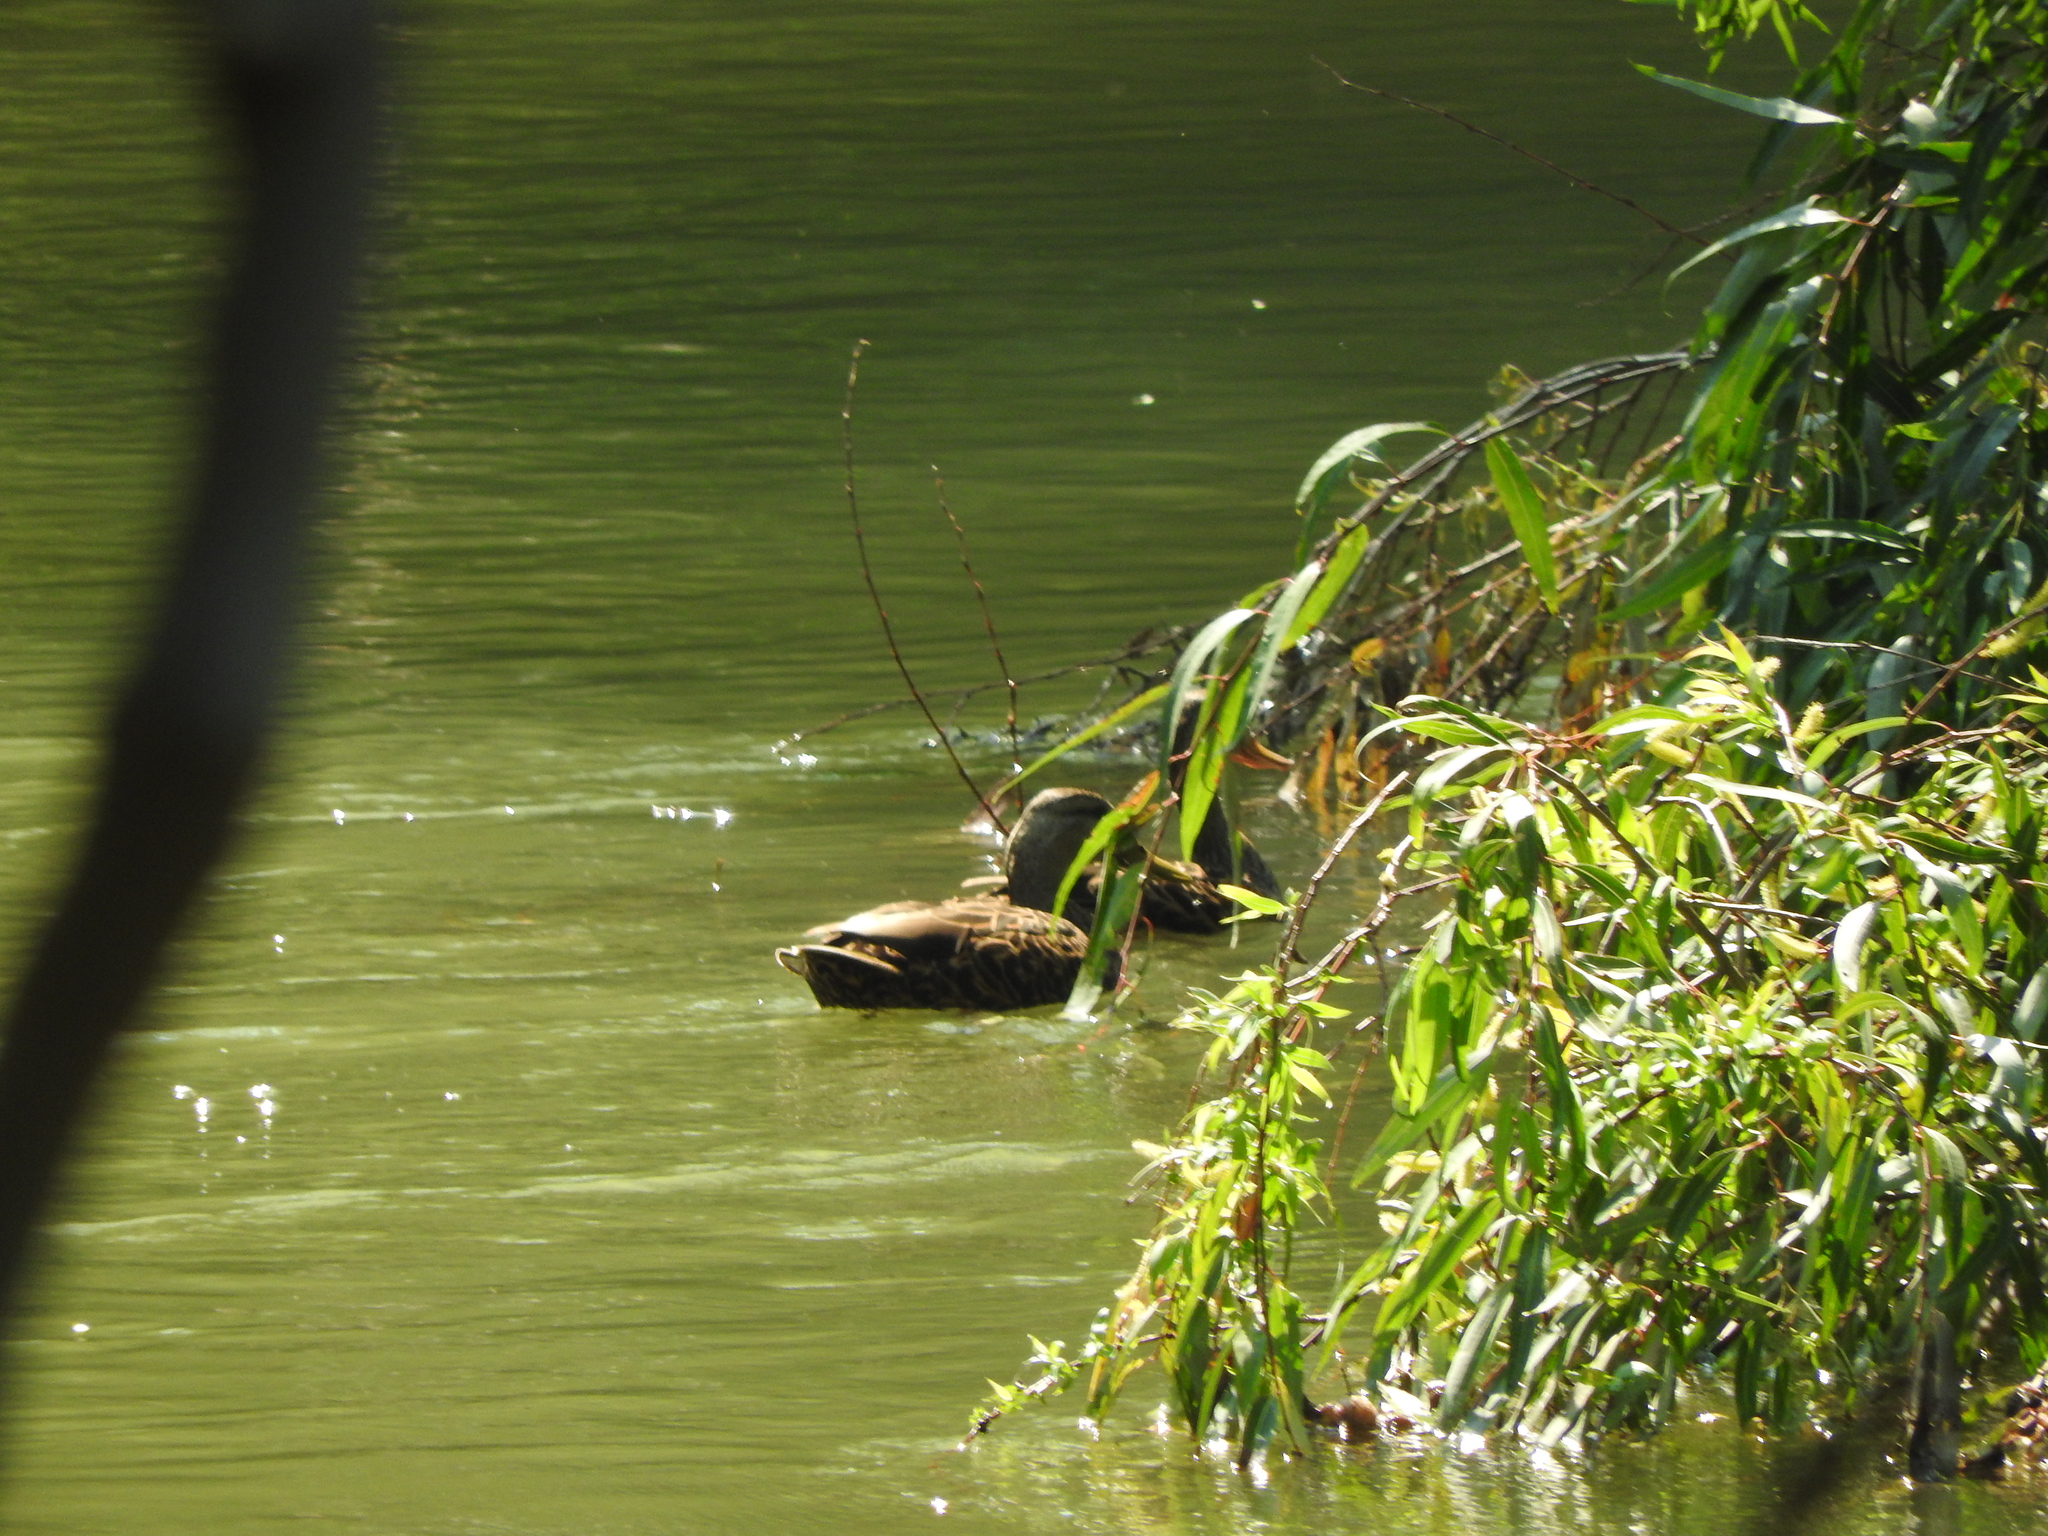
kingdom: Animalia
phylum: Chordata
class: Aves
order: Anseriformes
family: Anatidae
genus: Anas
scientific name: Anas diazi
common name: Mexican duck
